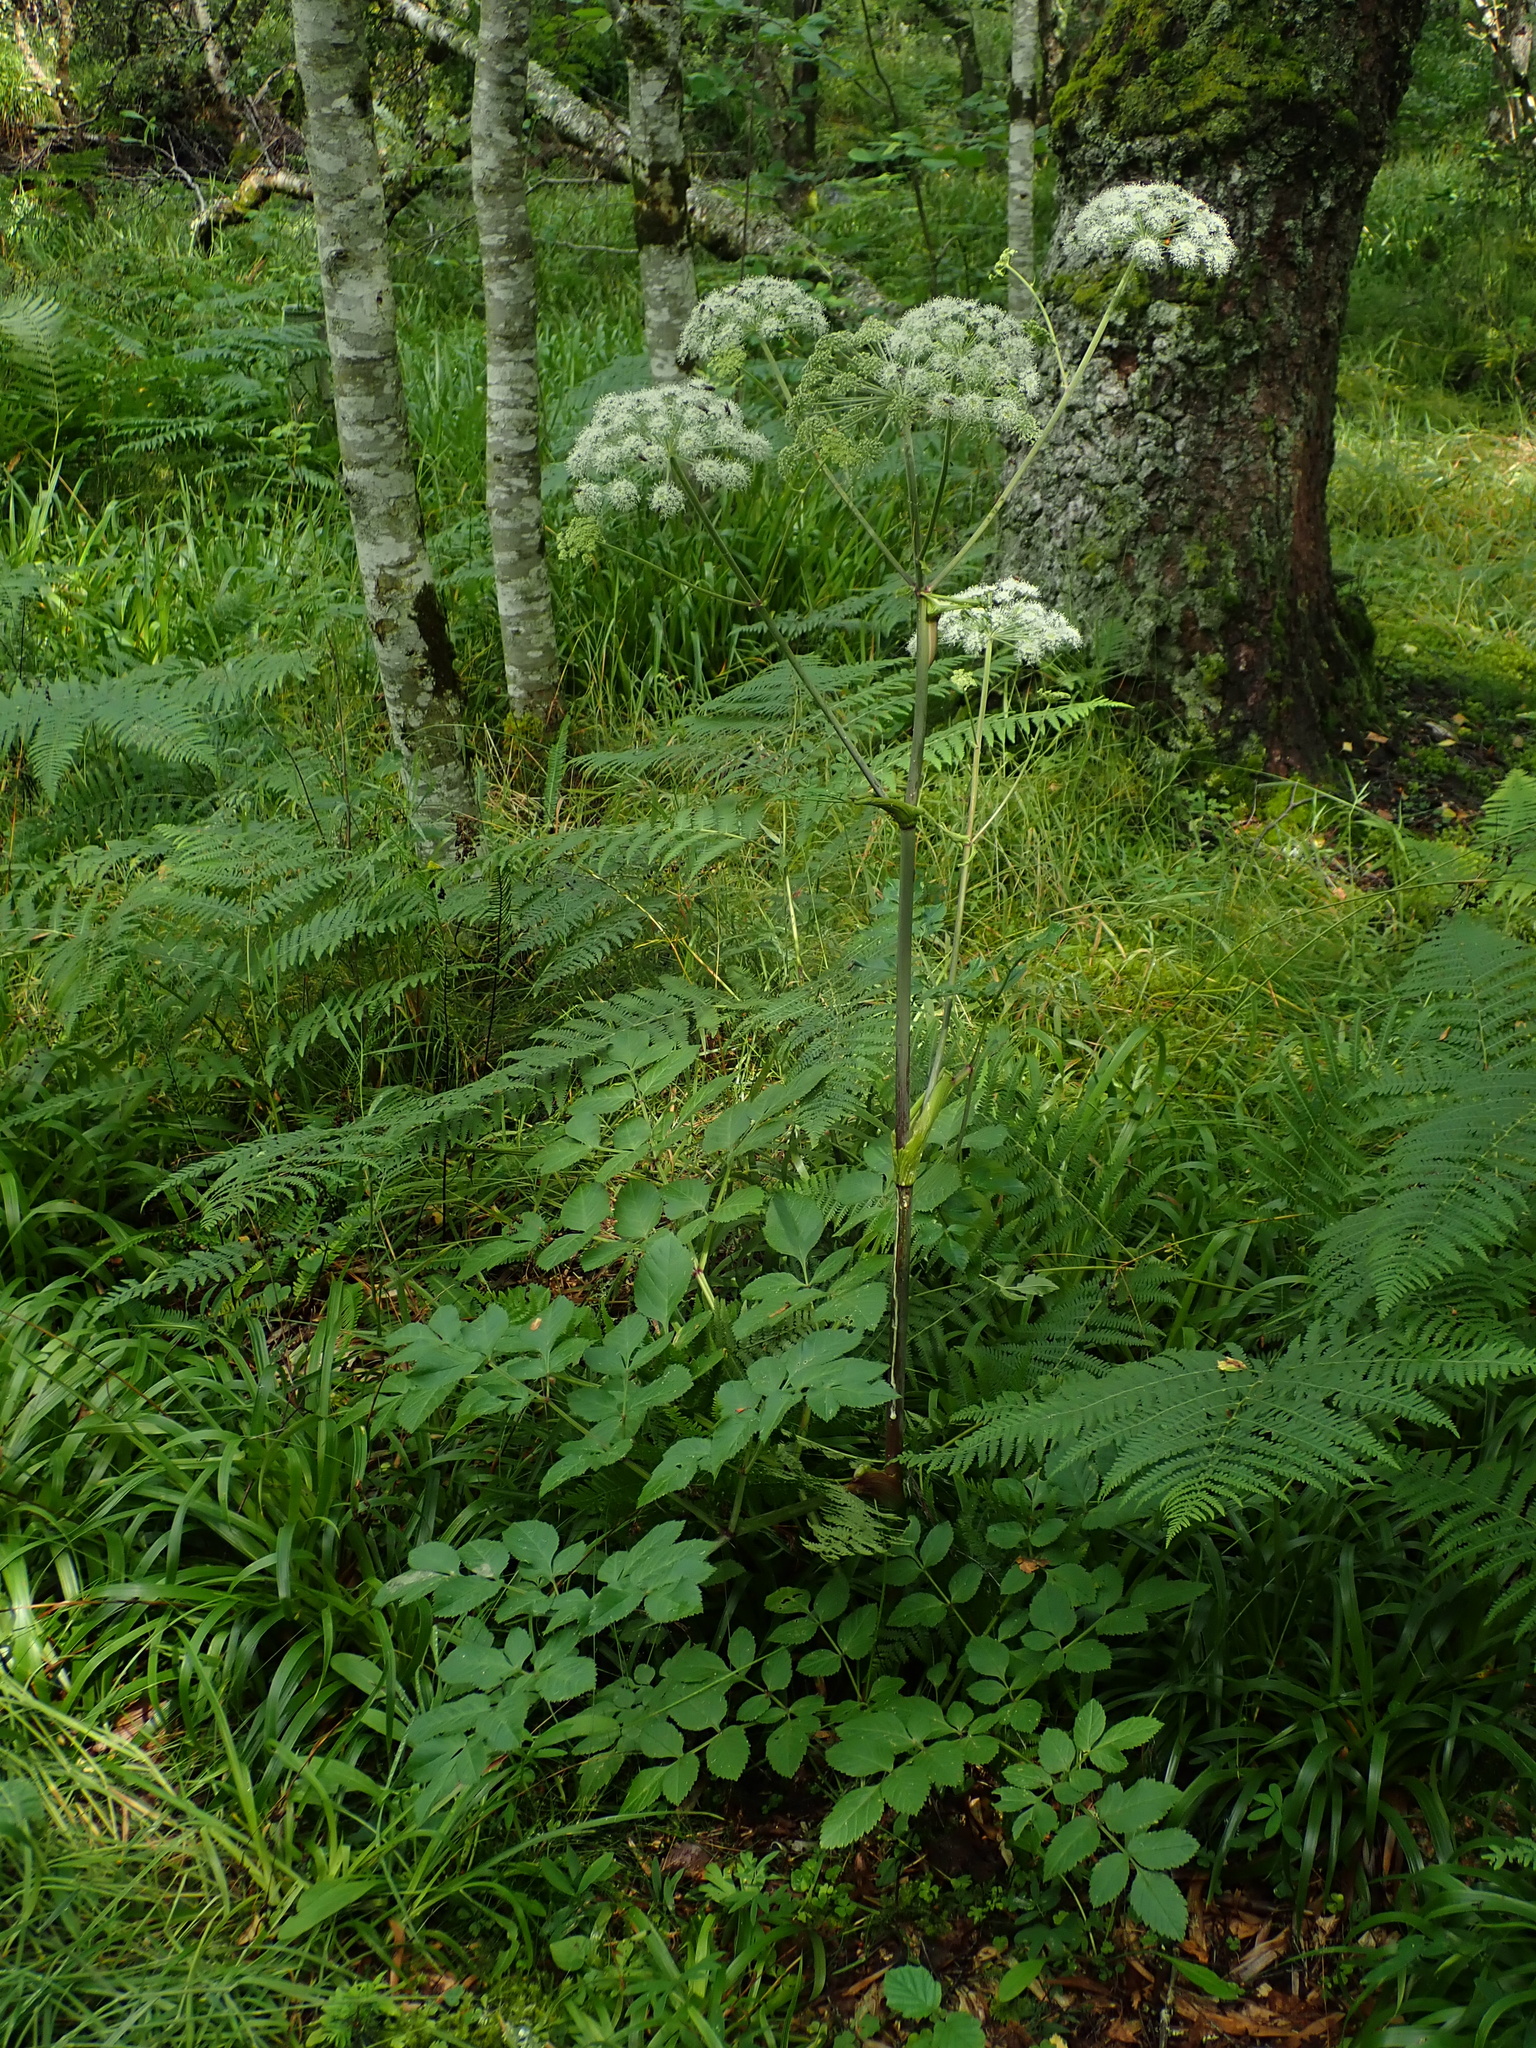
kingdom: Plantae
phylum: Tracheophyta
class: Magnoliopsida
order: Apiales
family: Apiaceae
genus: Angelica
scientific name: Angelica sylvestris
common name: Wild angelica
